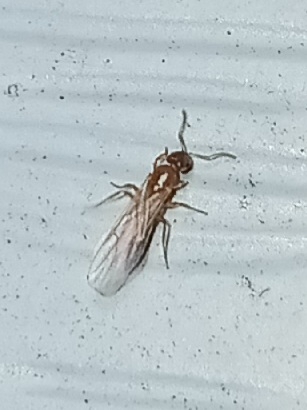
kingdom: Animalia
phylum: Arthropoda
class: Insecta
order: Hymenoptera
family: Formicidae
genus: Brachymyrmex
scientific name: Brachymyrmex depilis
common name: Hairless rover ant
